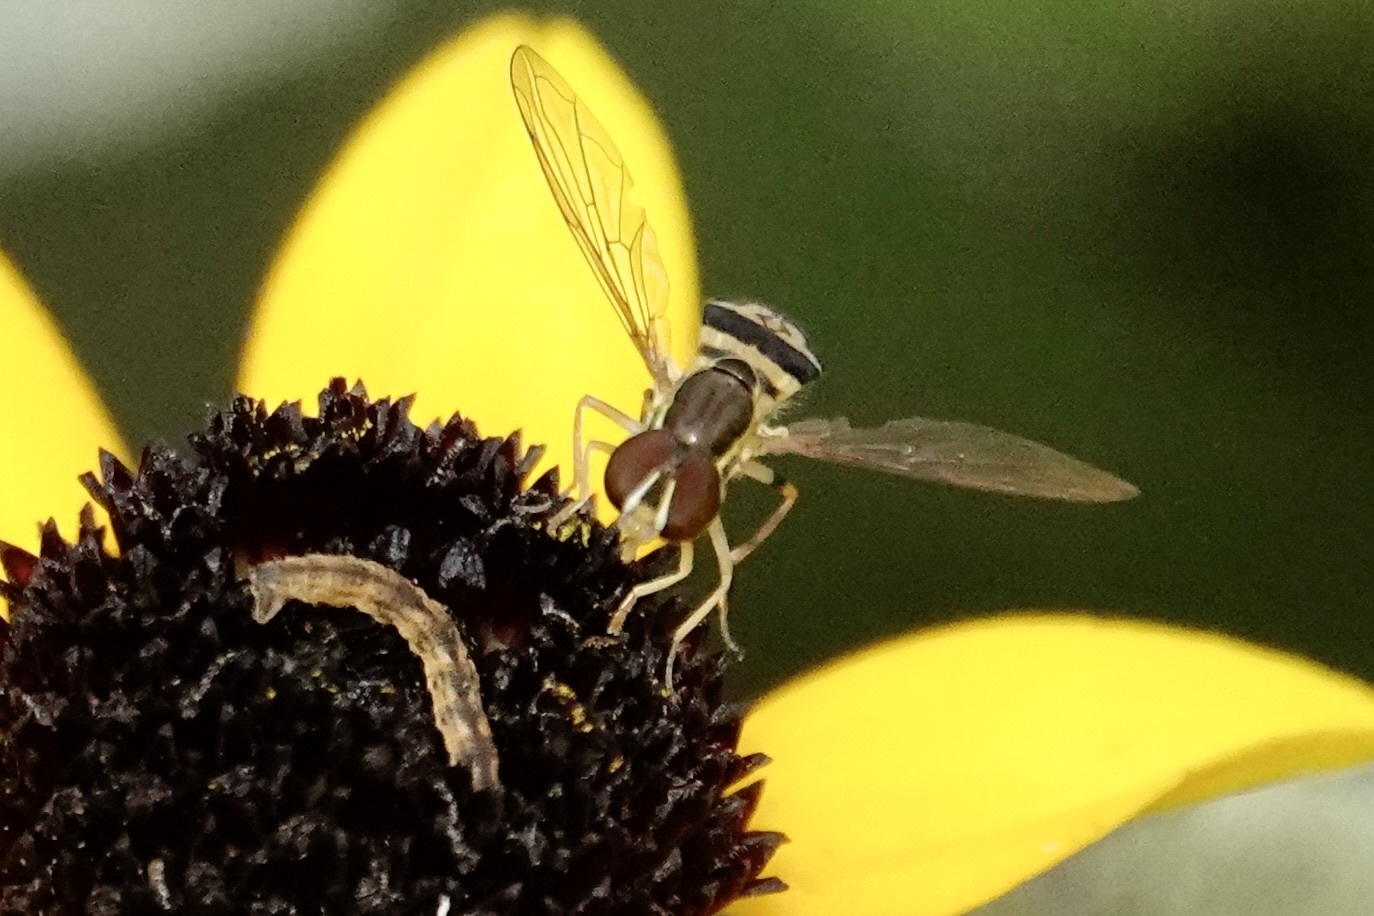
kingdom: Animalia
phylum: Arthropoda
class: Insecta
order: Diptera
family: Syrphidae
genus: Toxomerus
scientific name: Toxomerus geminatus
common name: Eastern calligrapher
